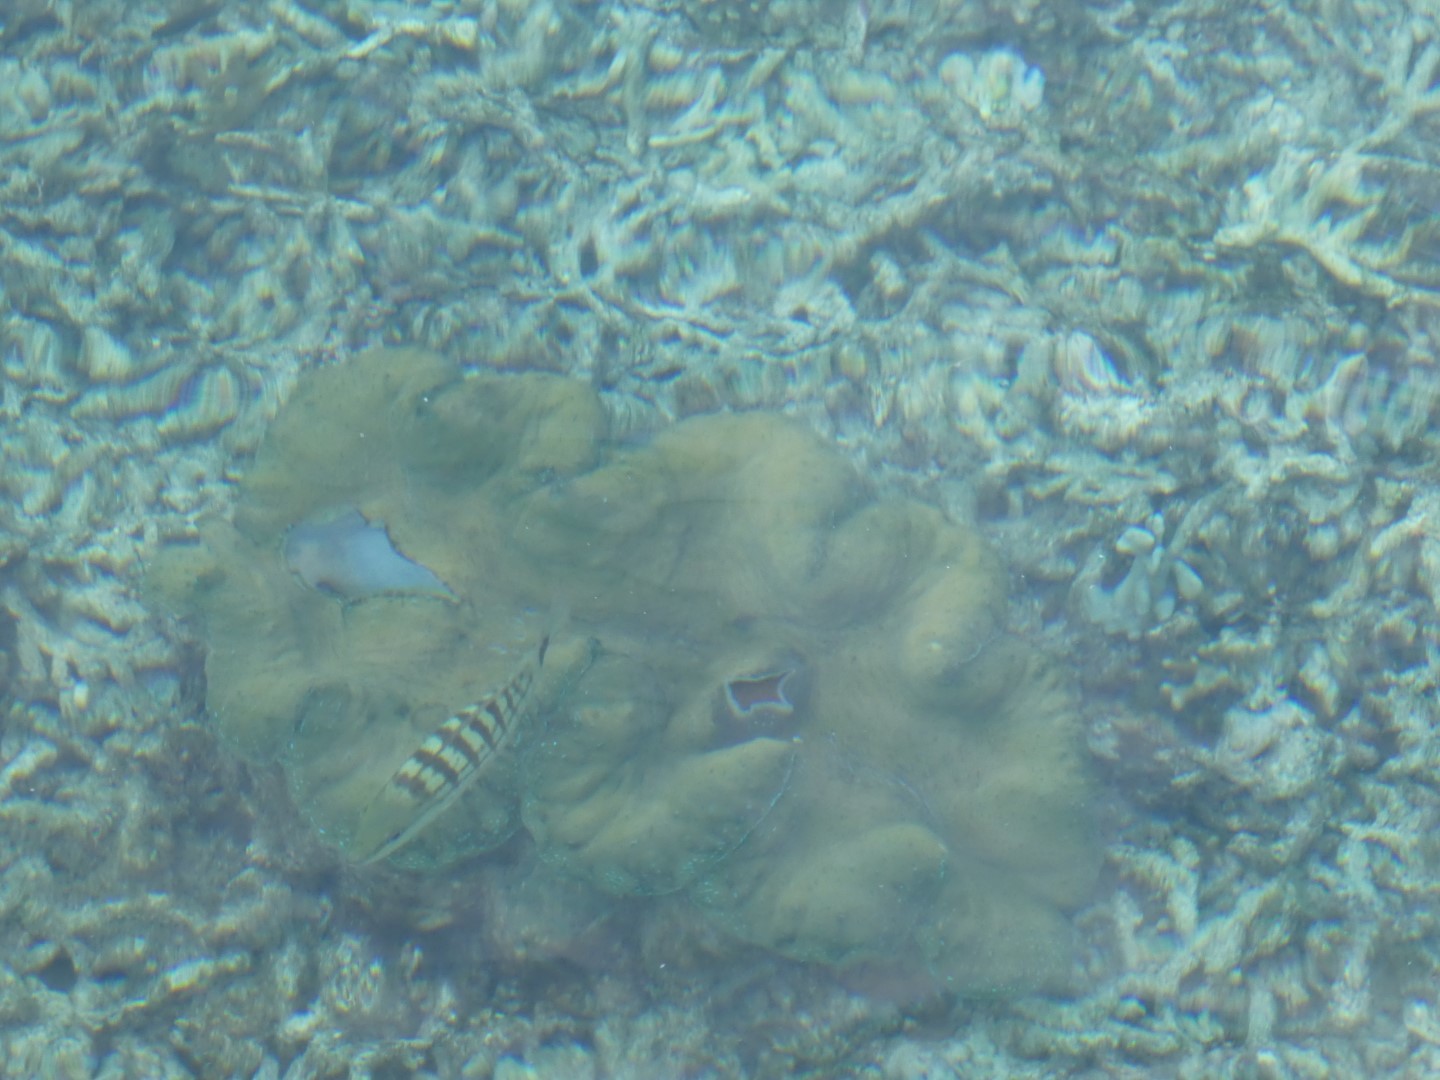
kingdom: Animalia
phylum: Chordata
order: Perciformes
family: Lutjanidae
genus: Lutjanus
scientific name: Lutjanus decussatus
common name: Checkered snapper
